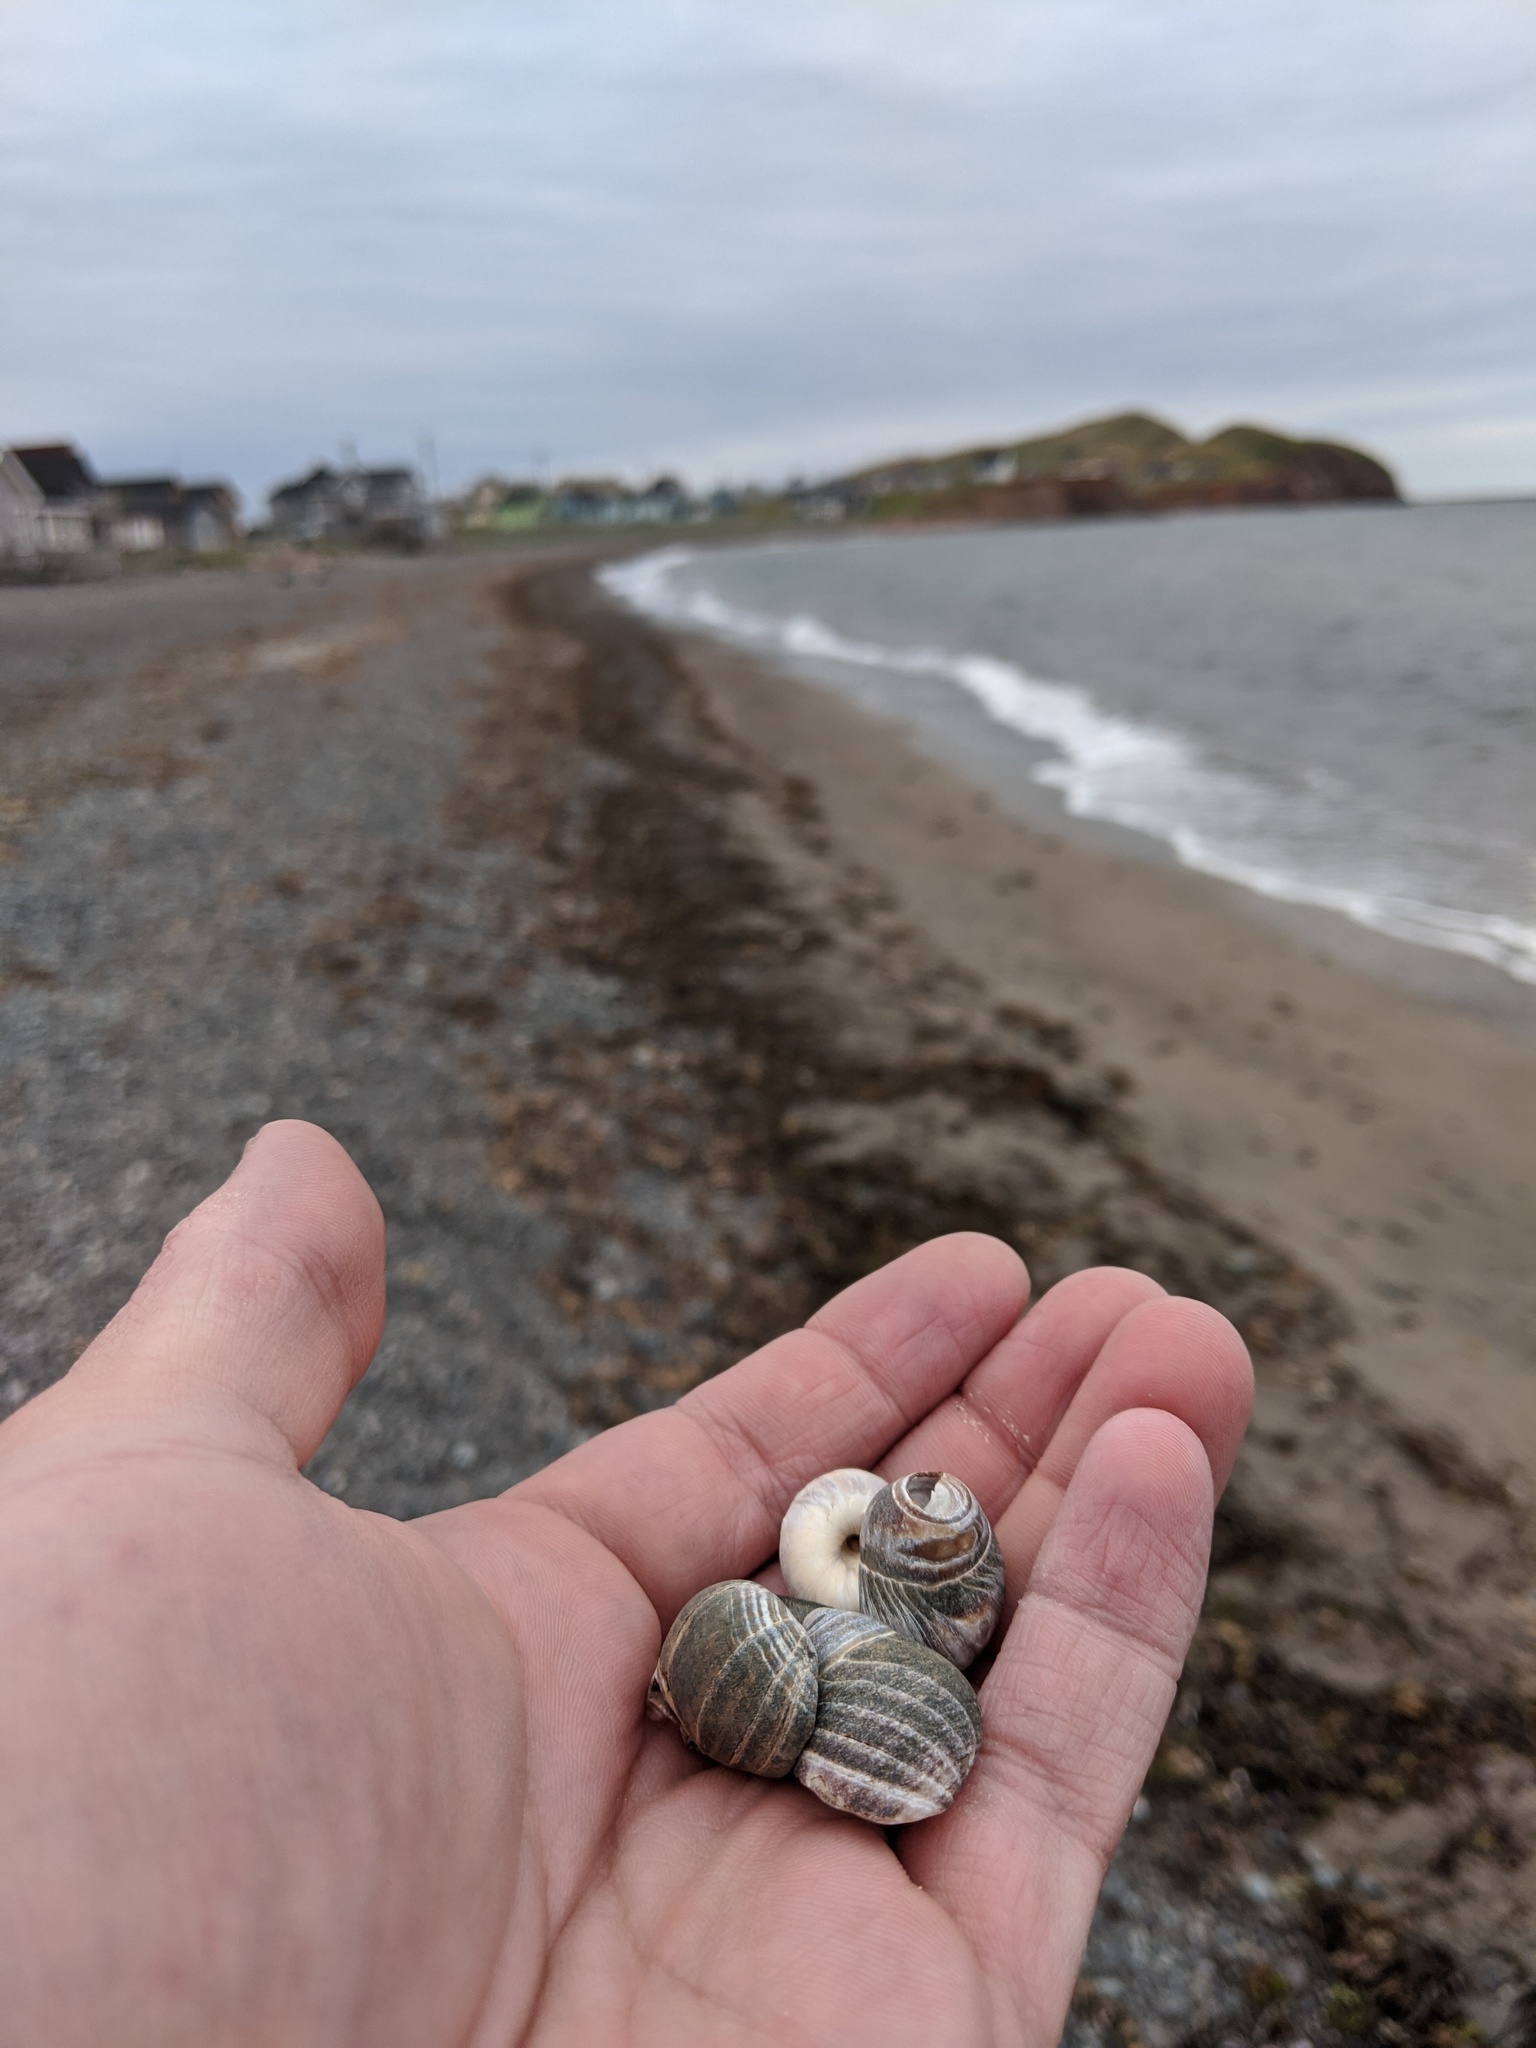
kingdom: Animalia
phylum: Mollusca
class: Gastropoda
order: Littorinimorpha
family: Littorinidae
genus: Littorina
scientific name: Littorina littorea
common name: Common periwinkle
